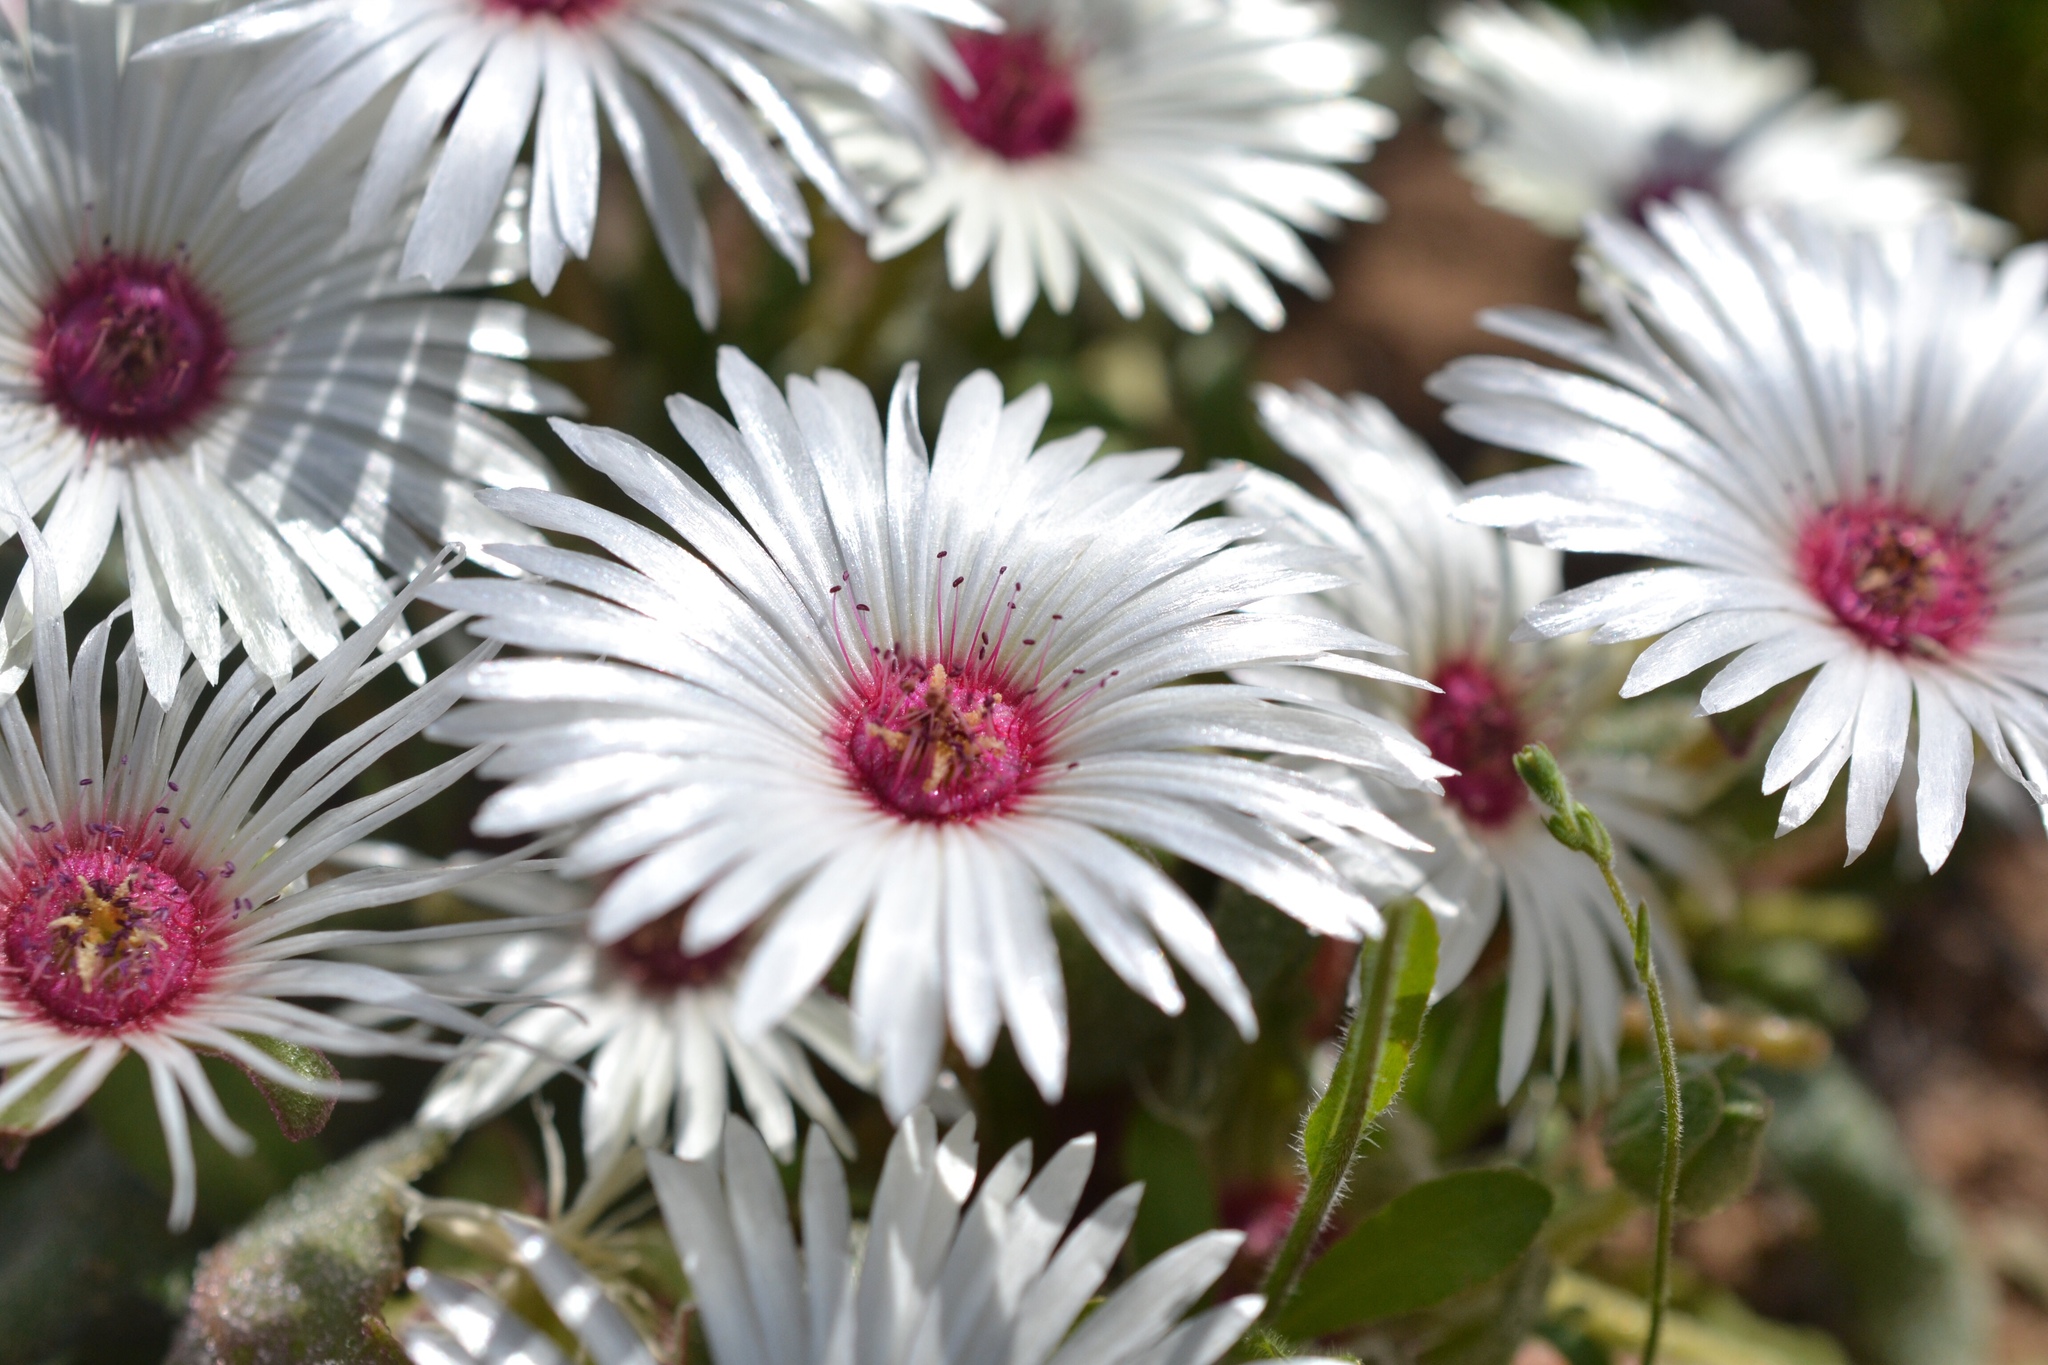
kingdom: Plantae
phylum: Tracheophyta
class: Magnoliopsida
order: Caryophyllales
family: Aizoaceae
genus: Cleretum
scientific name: Cleretum bellidiforme
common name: Livingstone daisy
